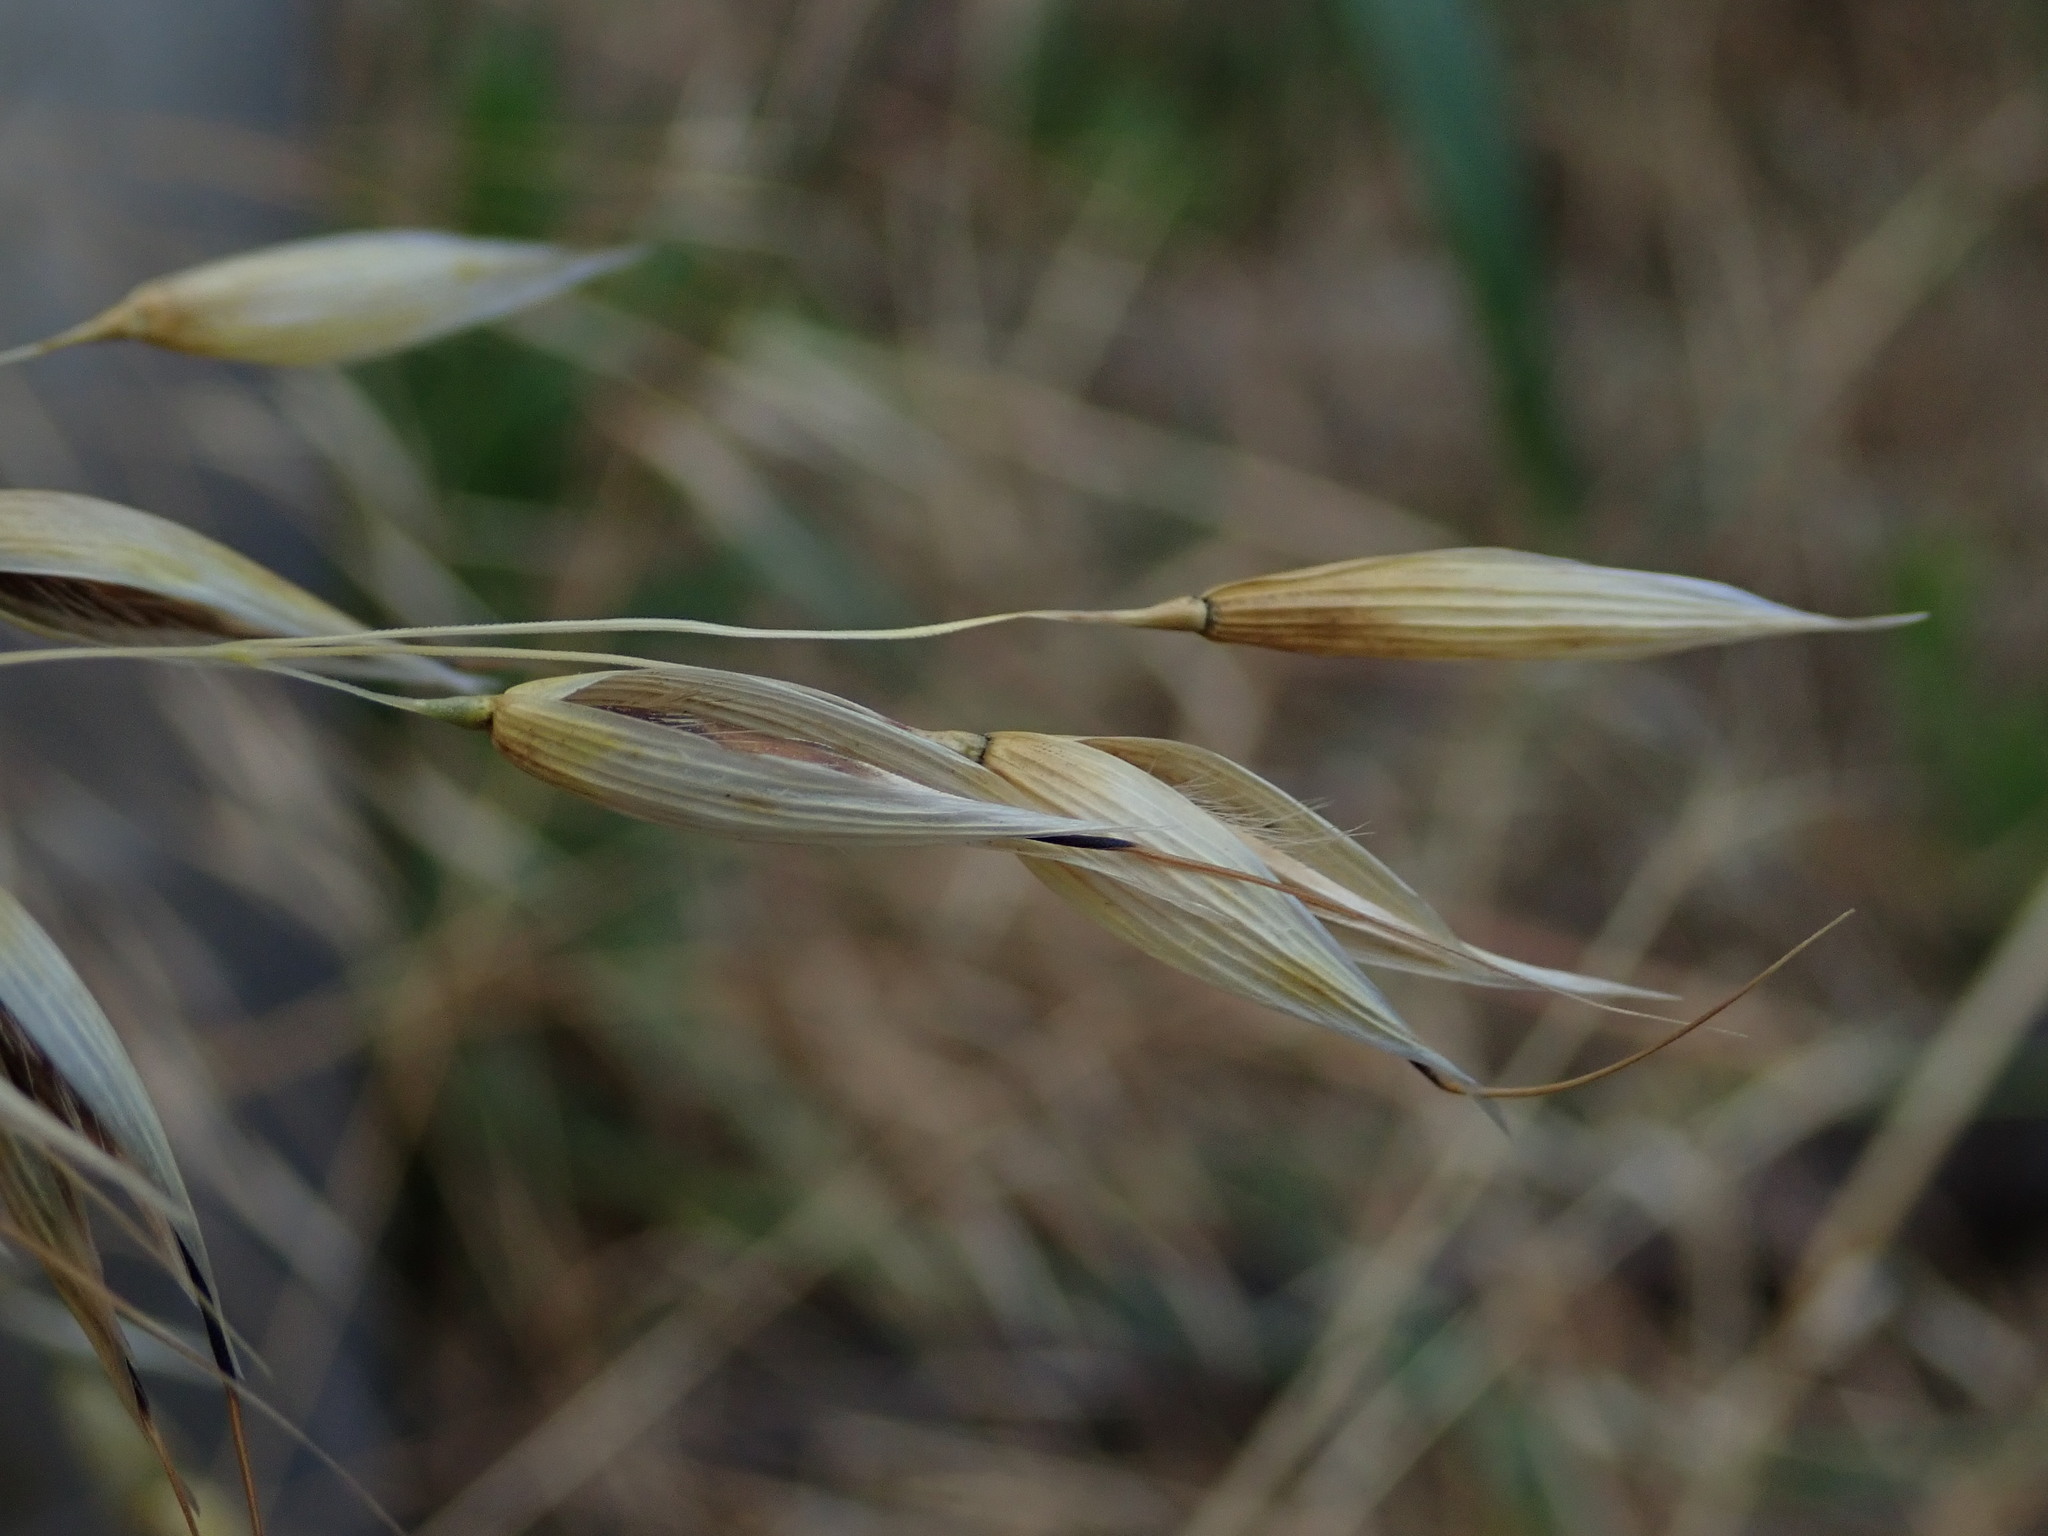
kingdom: Plantae
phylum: Tracheophyta
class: Liliopsida
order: Poales
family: Poaceae
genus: Avena
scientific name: Avena fatua
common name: Wild oat
